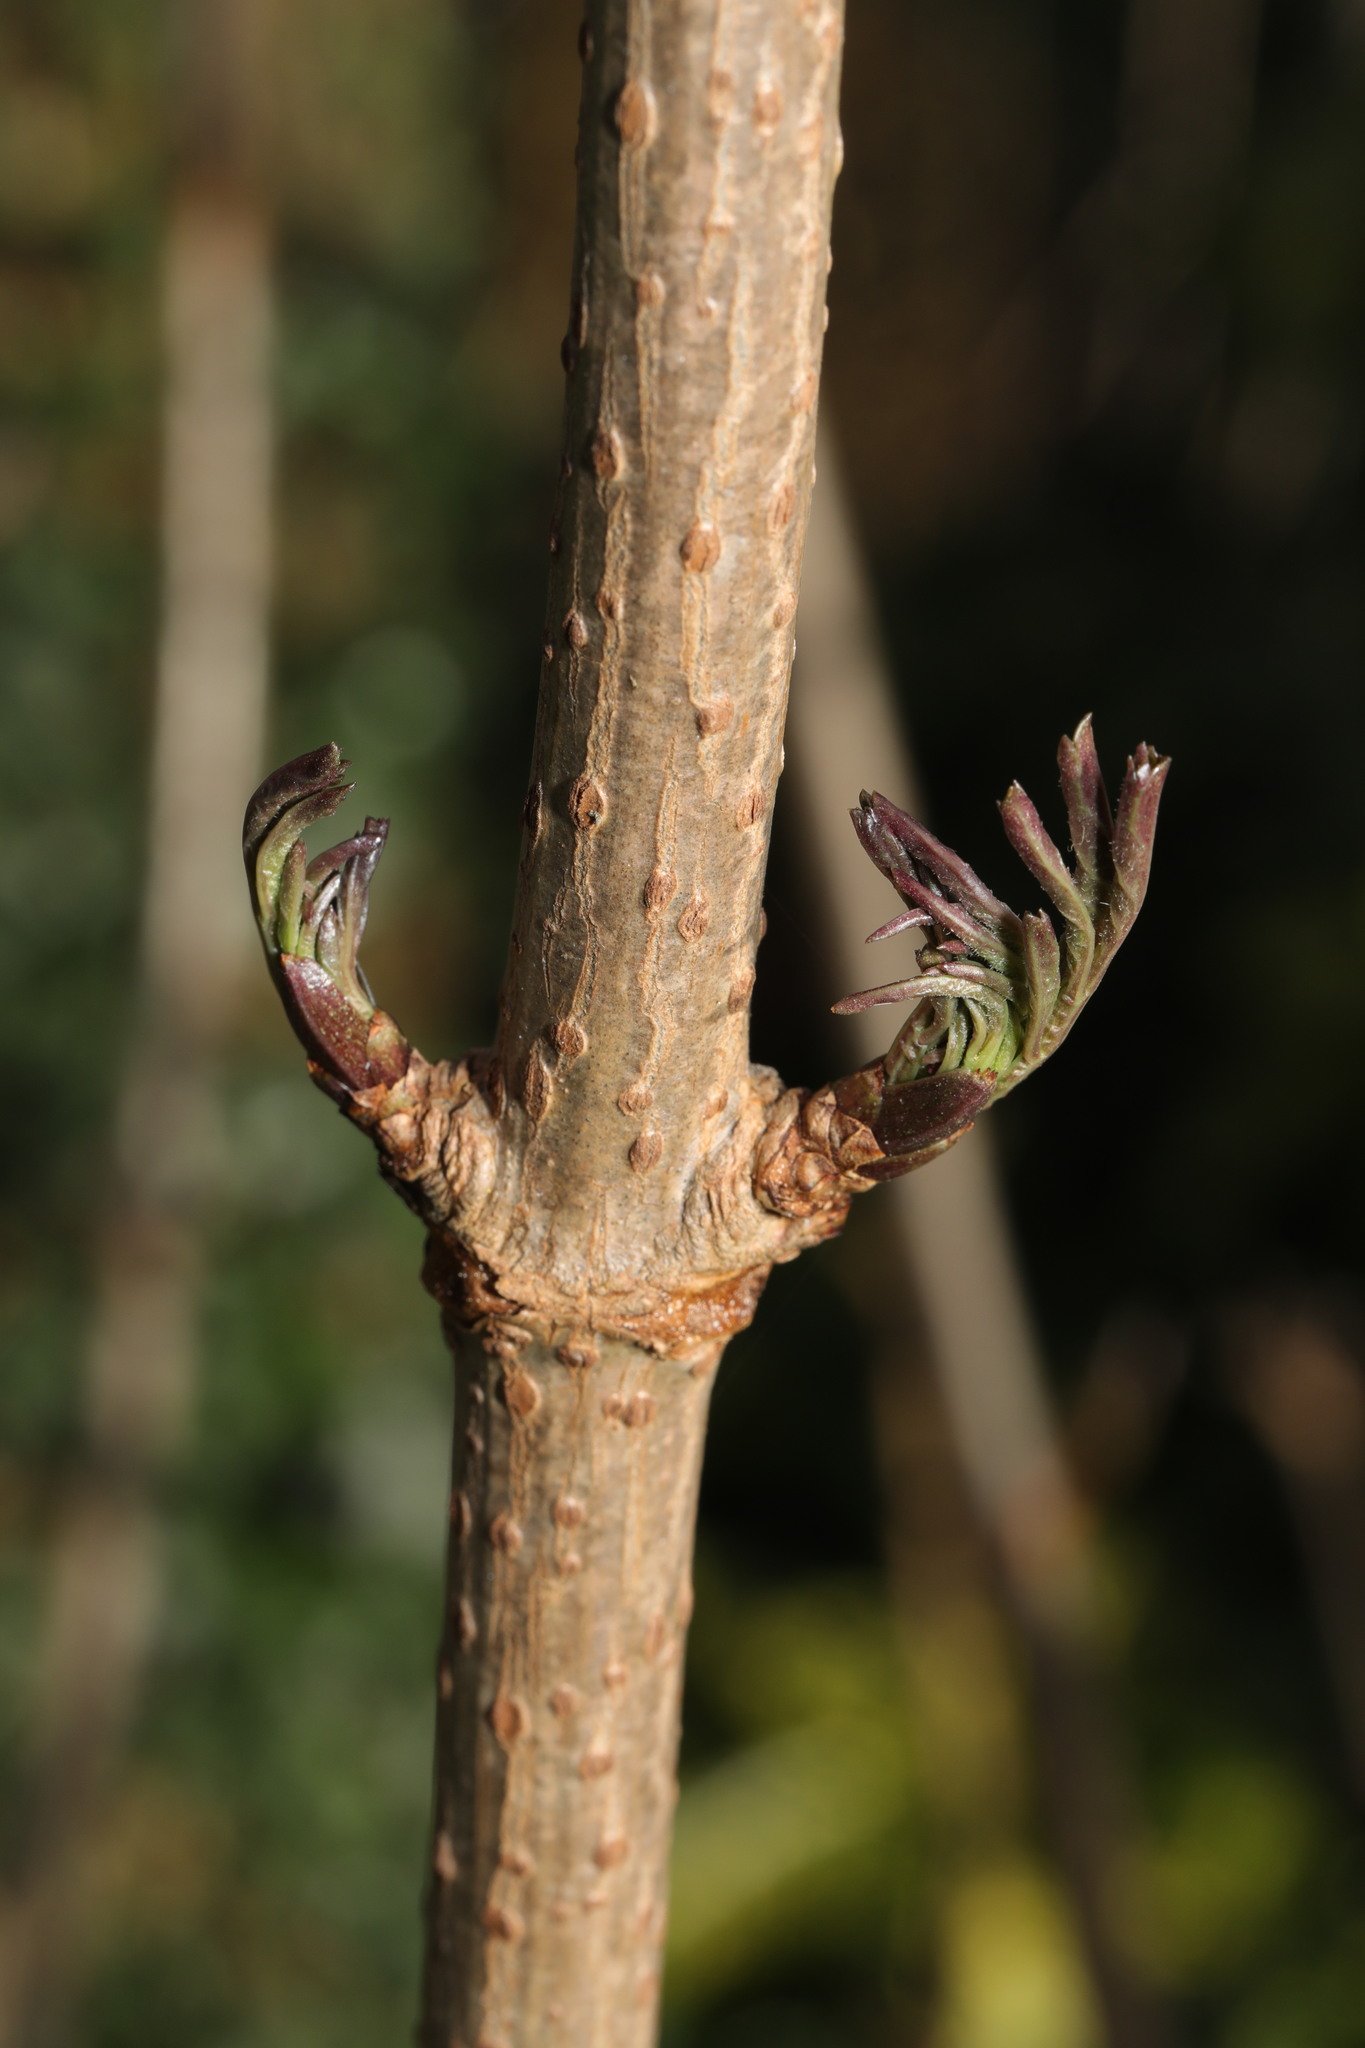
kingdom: Plantae
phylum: Tracheophyta
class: Magnoliopsida
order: Dipsacales
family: Viburnaceae
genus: Sambucus
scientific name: Sambucus nigra
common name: Elder
